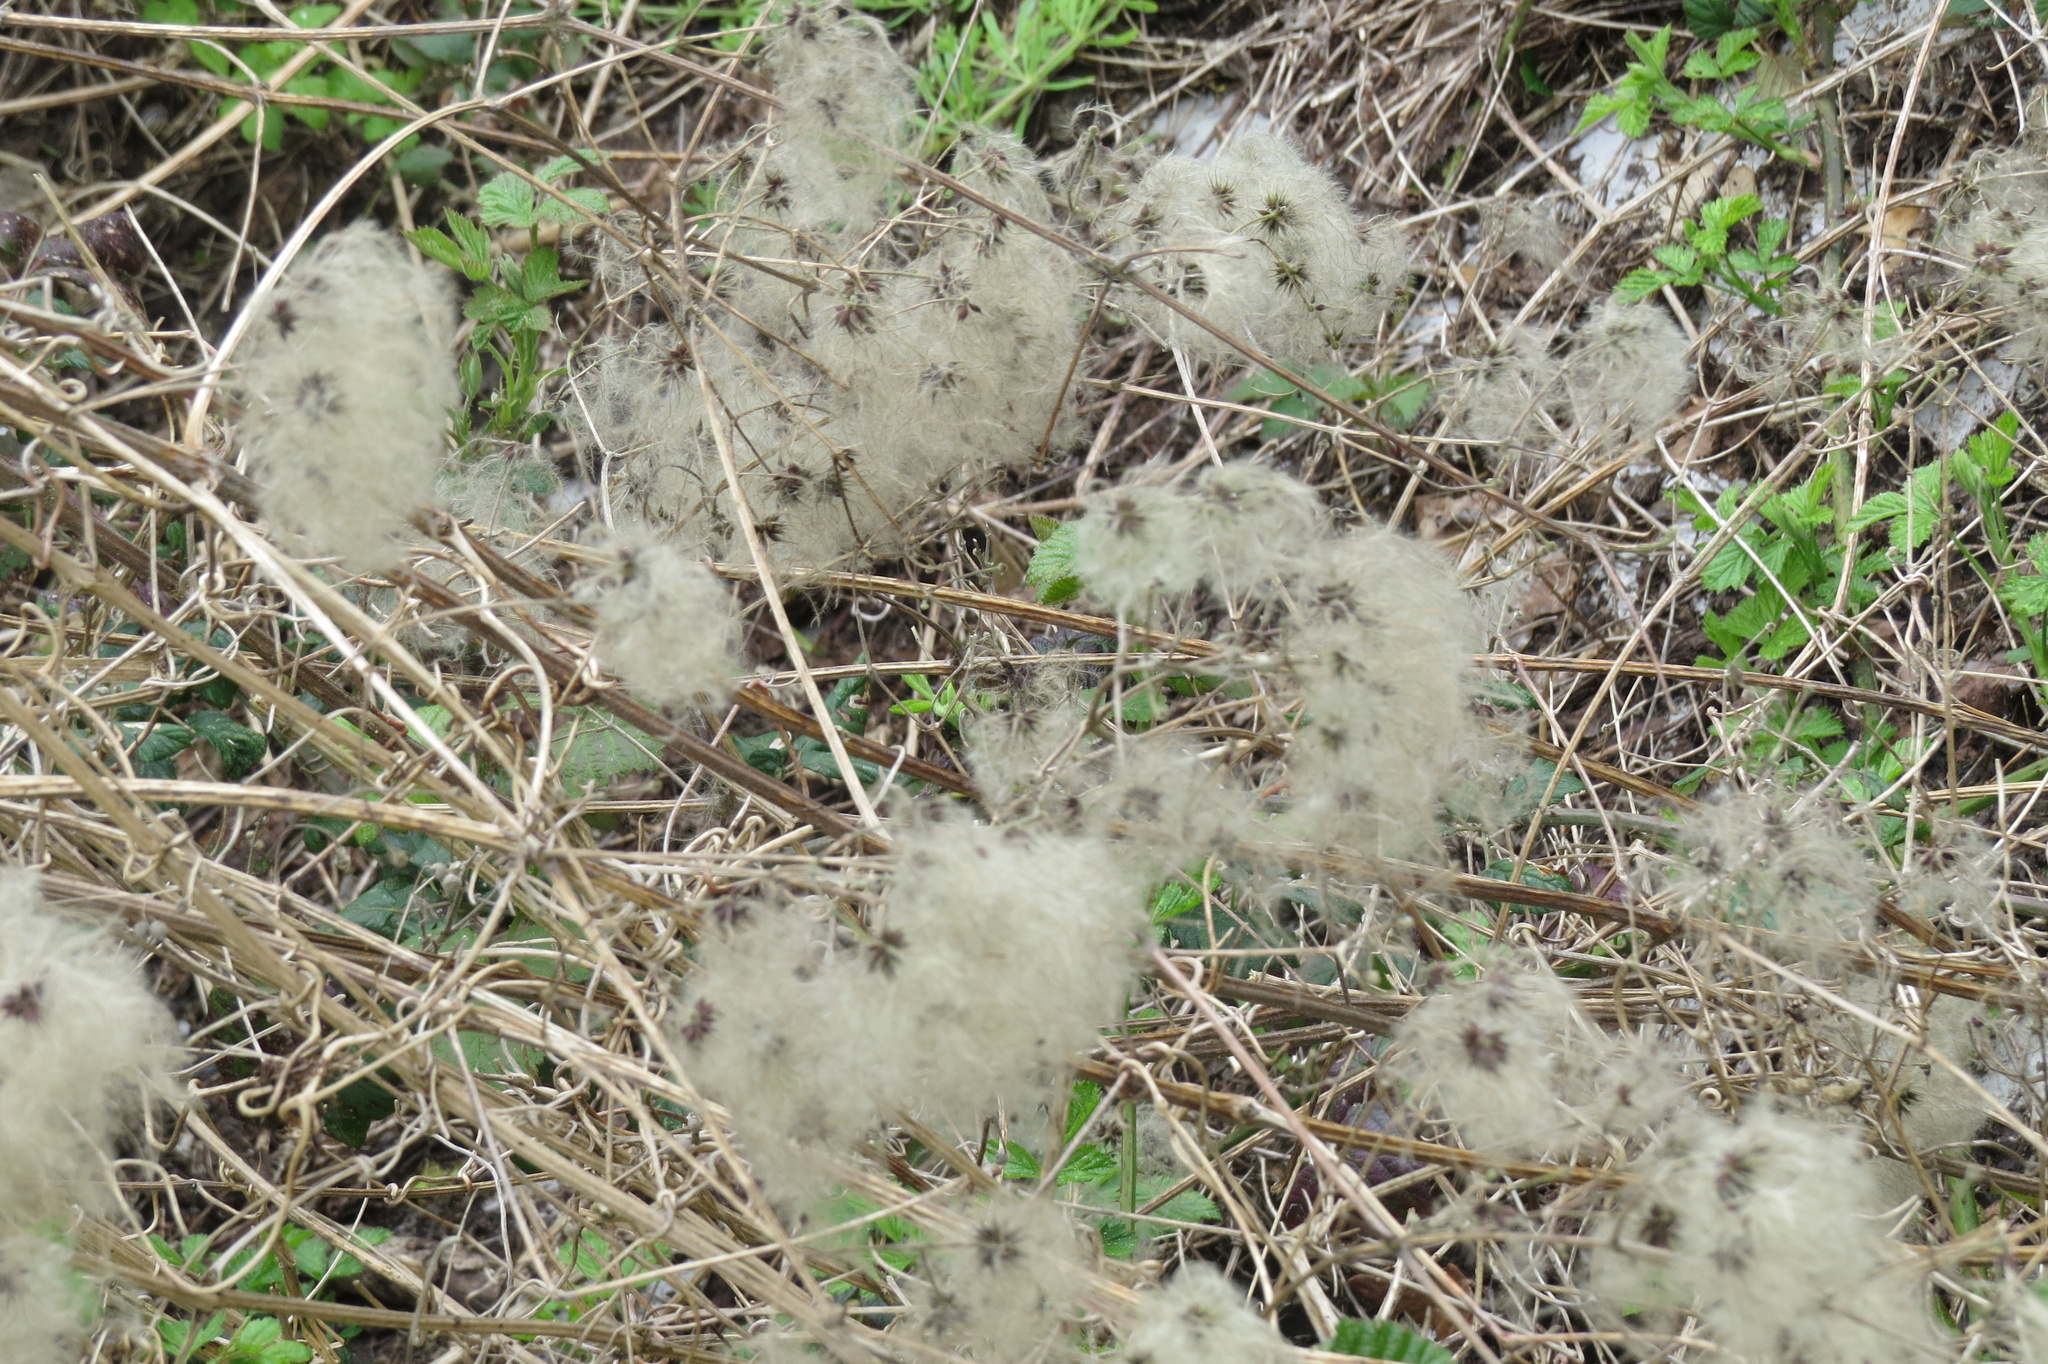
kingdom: Plantae
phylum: Tracheophyta
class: Magnoliopsida
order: Ranunculales
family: Ranunculaceae
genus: Clematis
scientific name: Clematis vitalba
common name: Evergreen clematis
